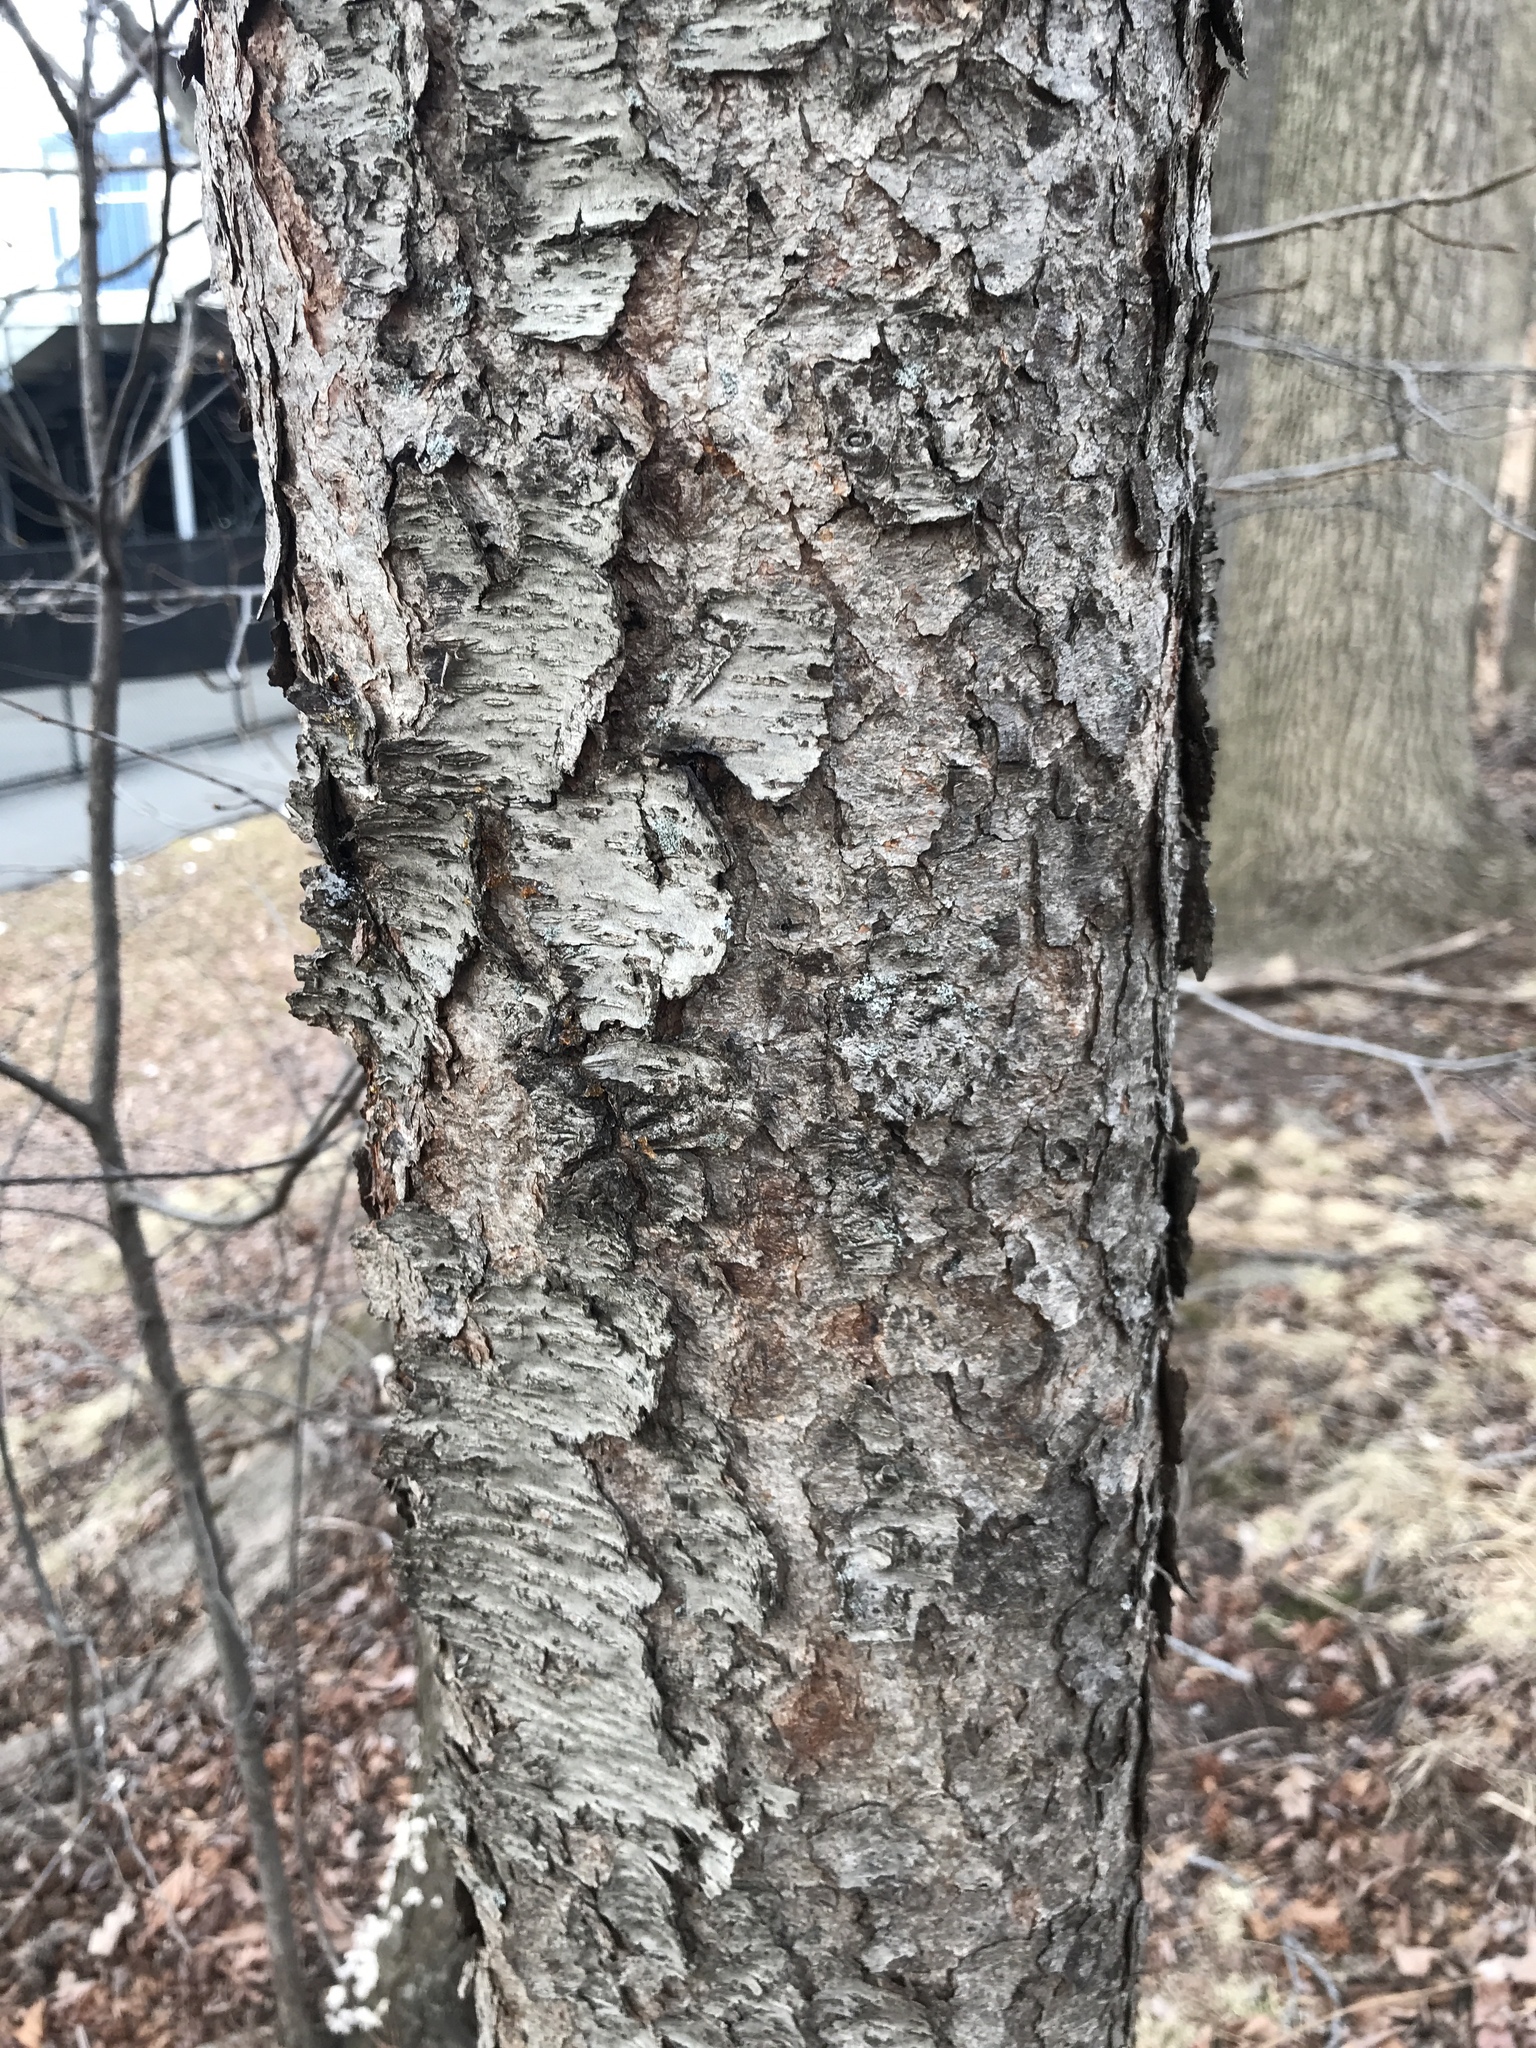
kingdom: Plantae
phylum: Tracheophyta
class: Magnoliopsida
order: Rosales
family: Rosaceae
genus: Prunus
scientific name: Prunus serotina
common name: Black cherry
